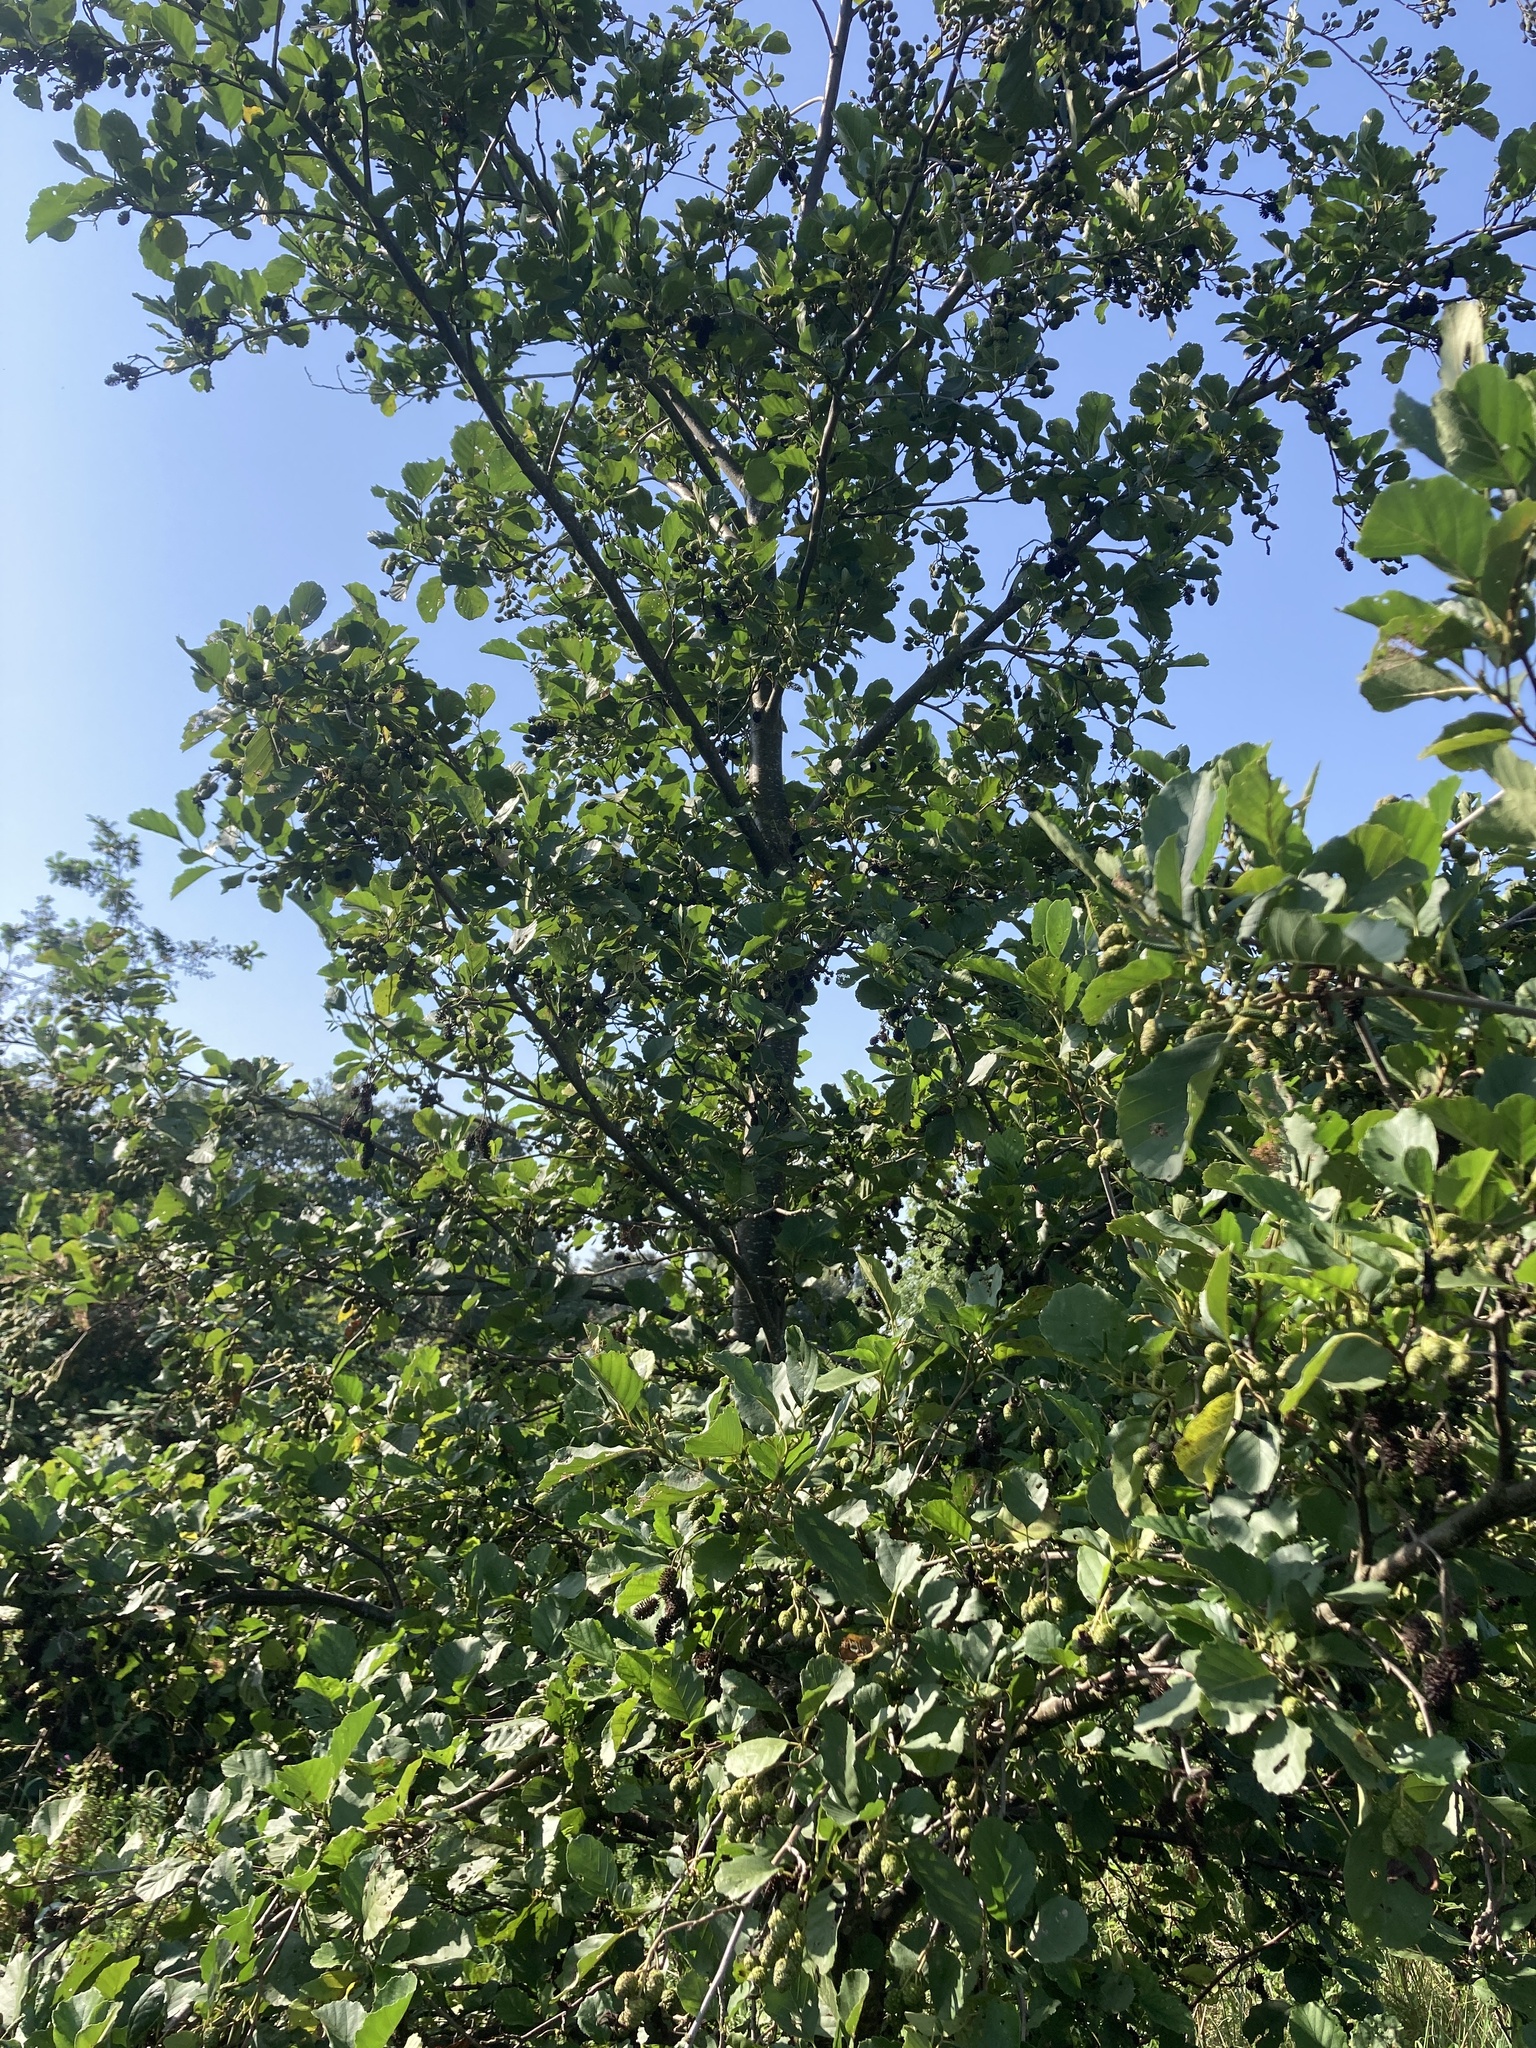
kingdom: Plantae
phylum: Tracheophyta
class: Magnoliopsida
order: Fagales
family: Betulaceae
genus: Alnus
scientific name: Alnus glutinosa
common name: Black alder
